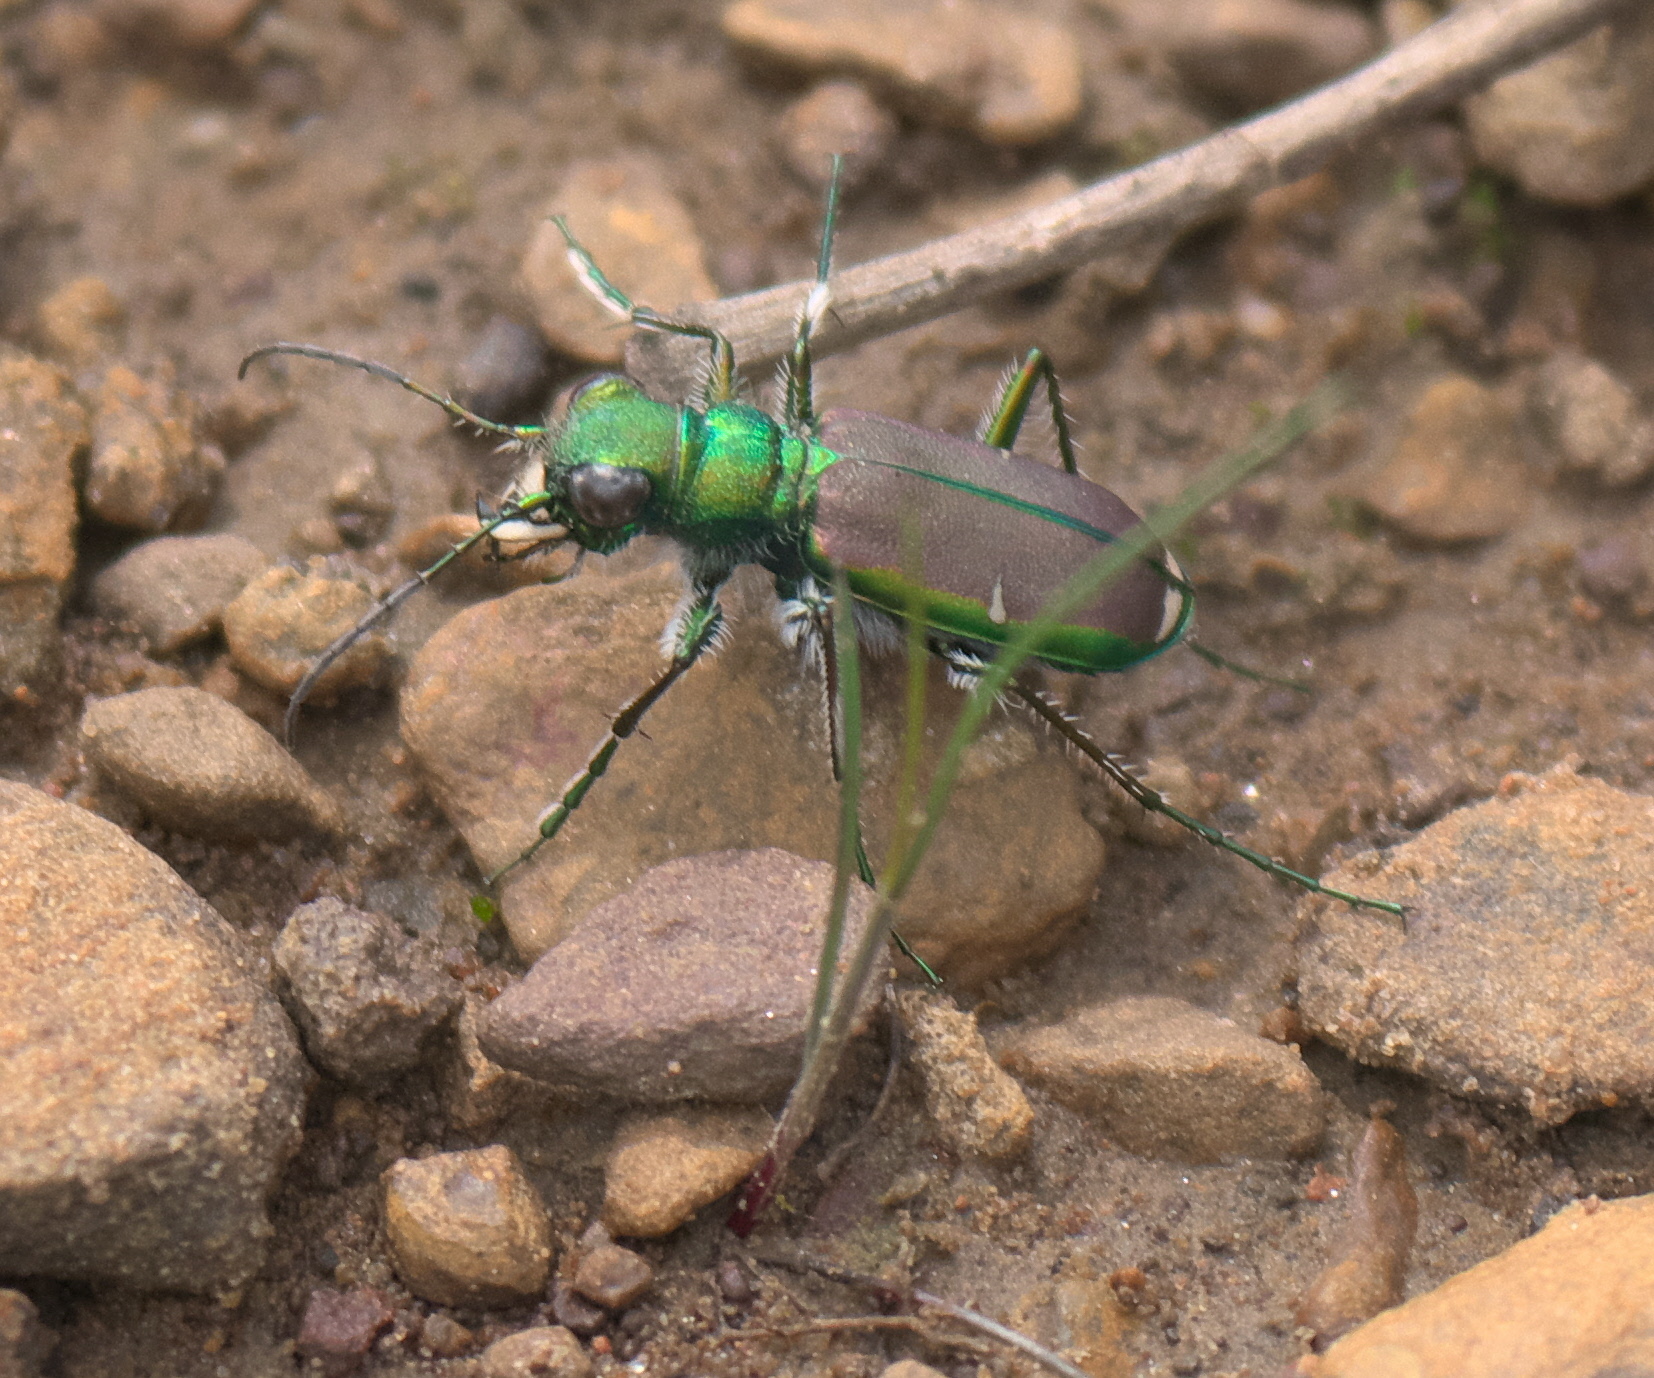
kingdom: Animalia
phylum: Arthropoda
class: Insecta
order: Coleoptera
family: Carabidae
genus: Cicindela
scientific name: Cicindela splendida
